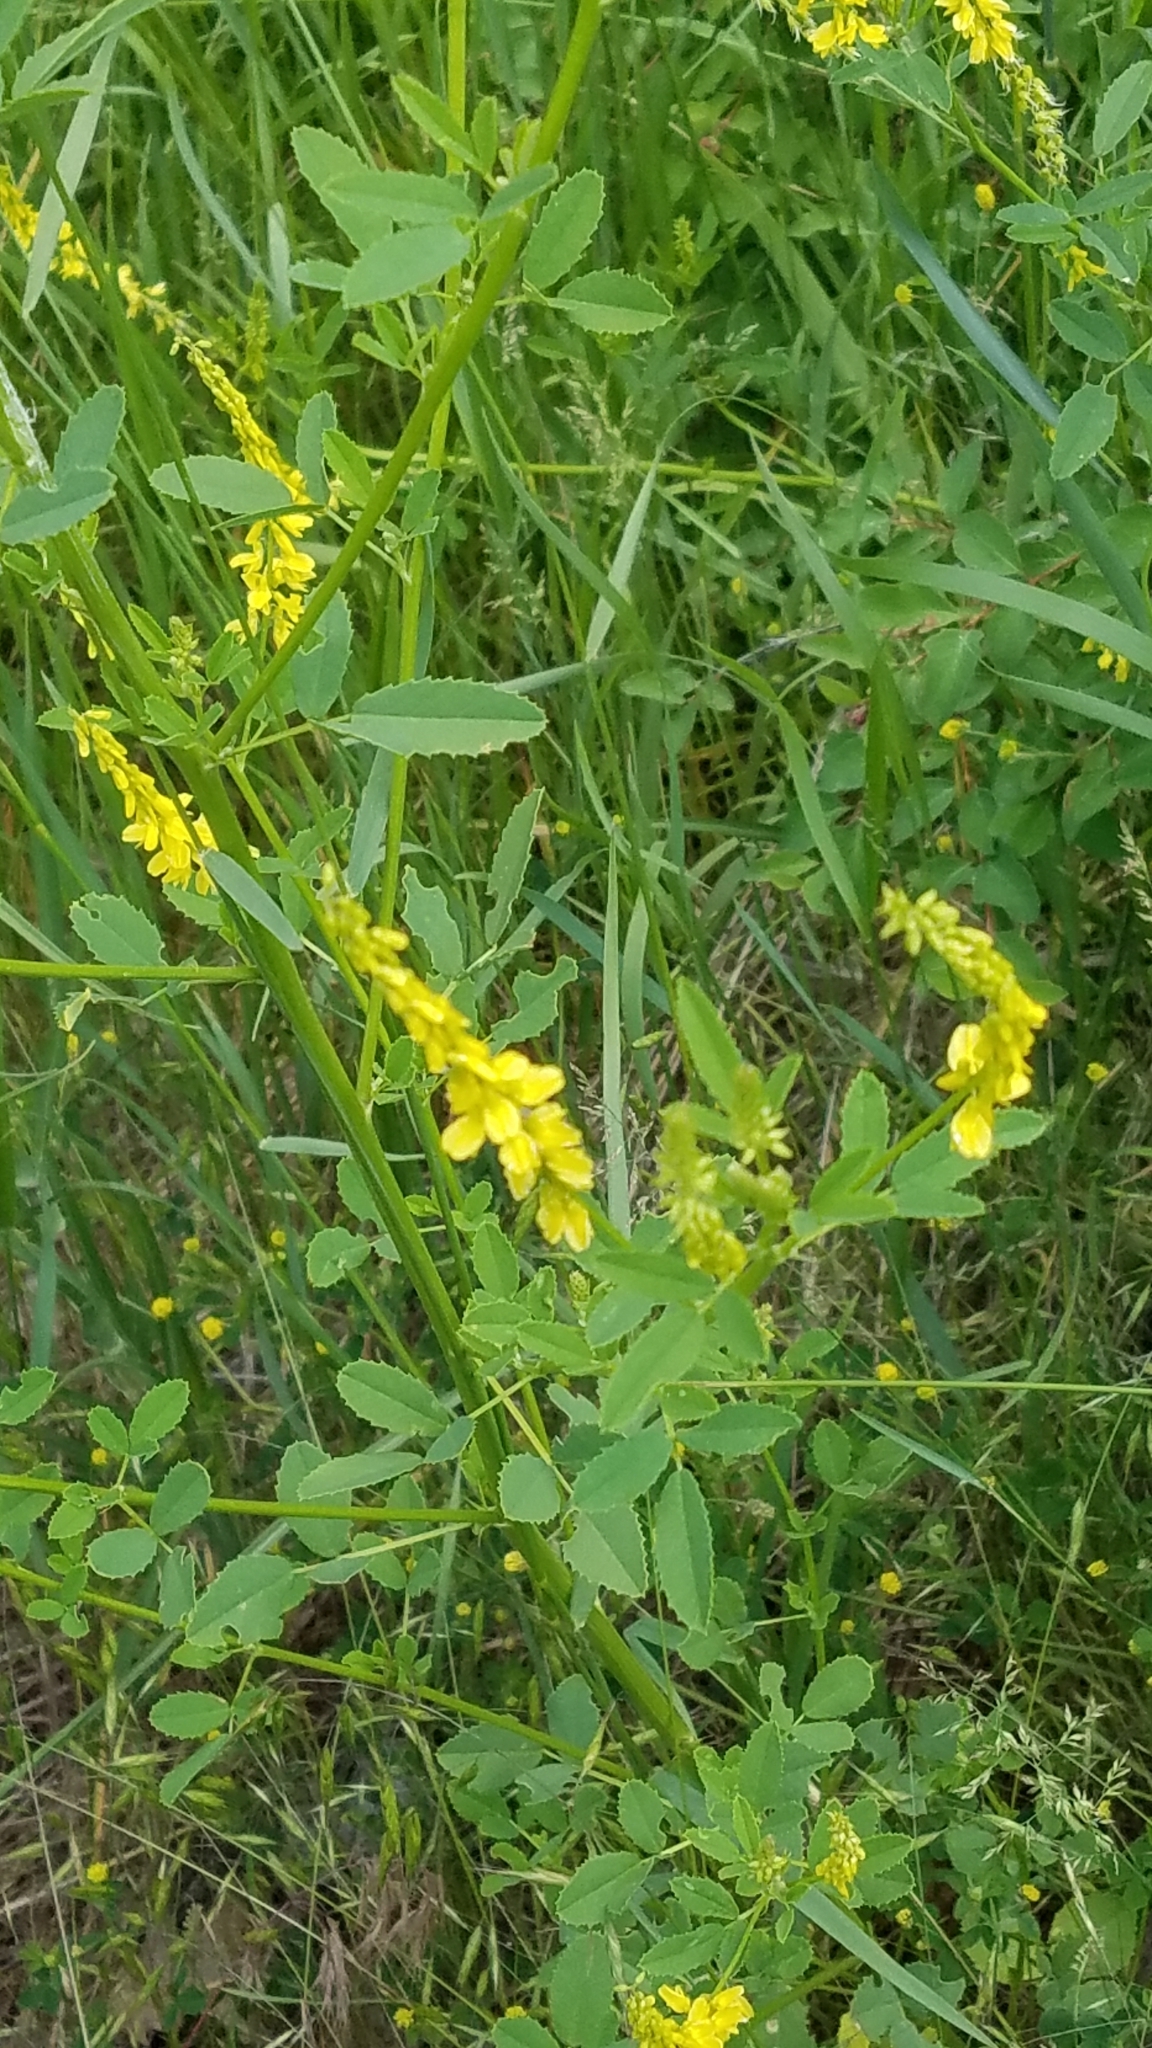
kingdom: Plantae
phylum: Tracheophyta
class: Magnoliopsida
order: Fabales
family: Fabaceae
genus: Melilotus
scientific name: Melilotus officinalis
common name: Sweetclover
